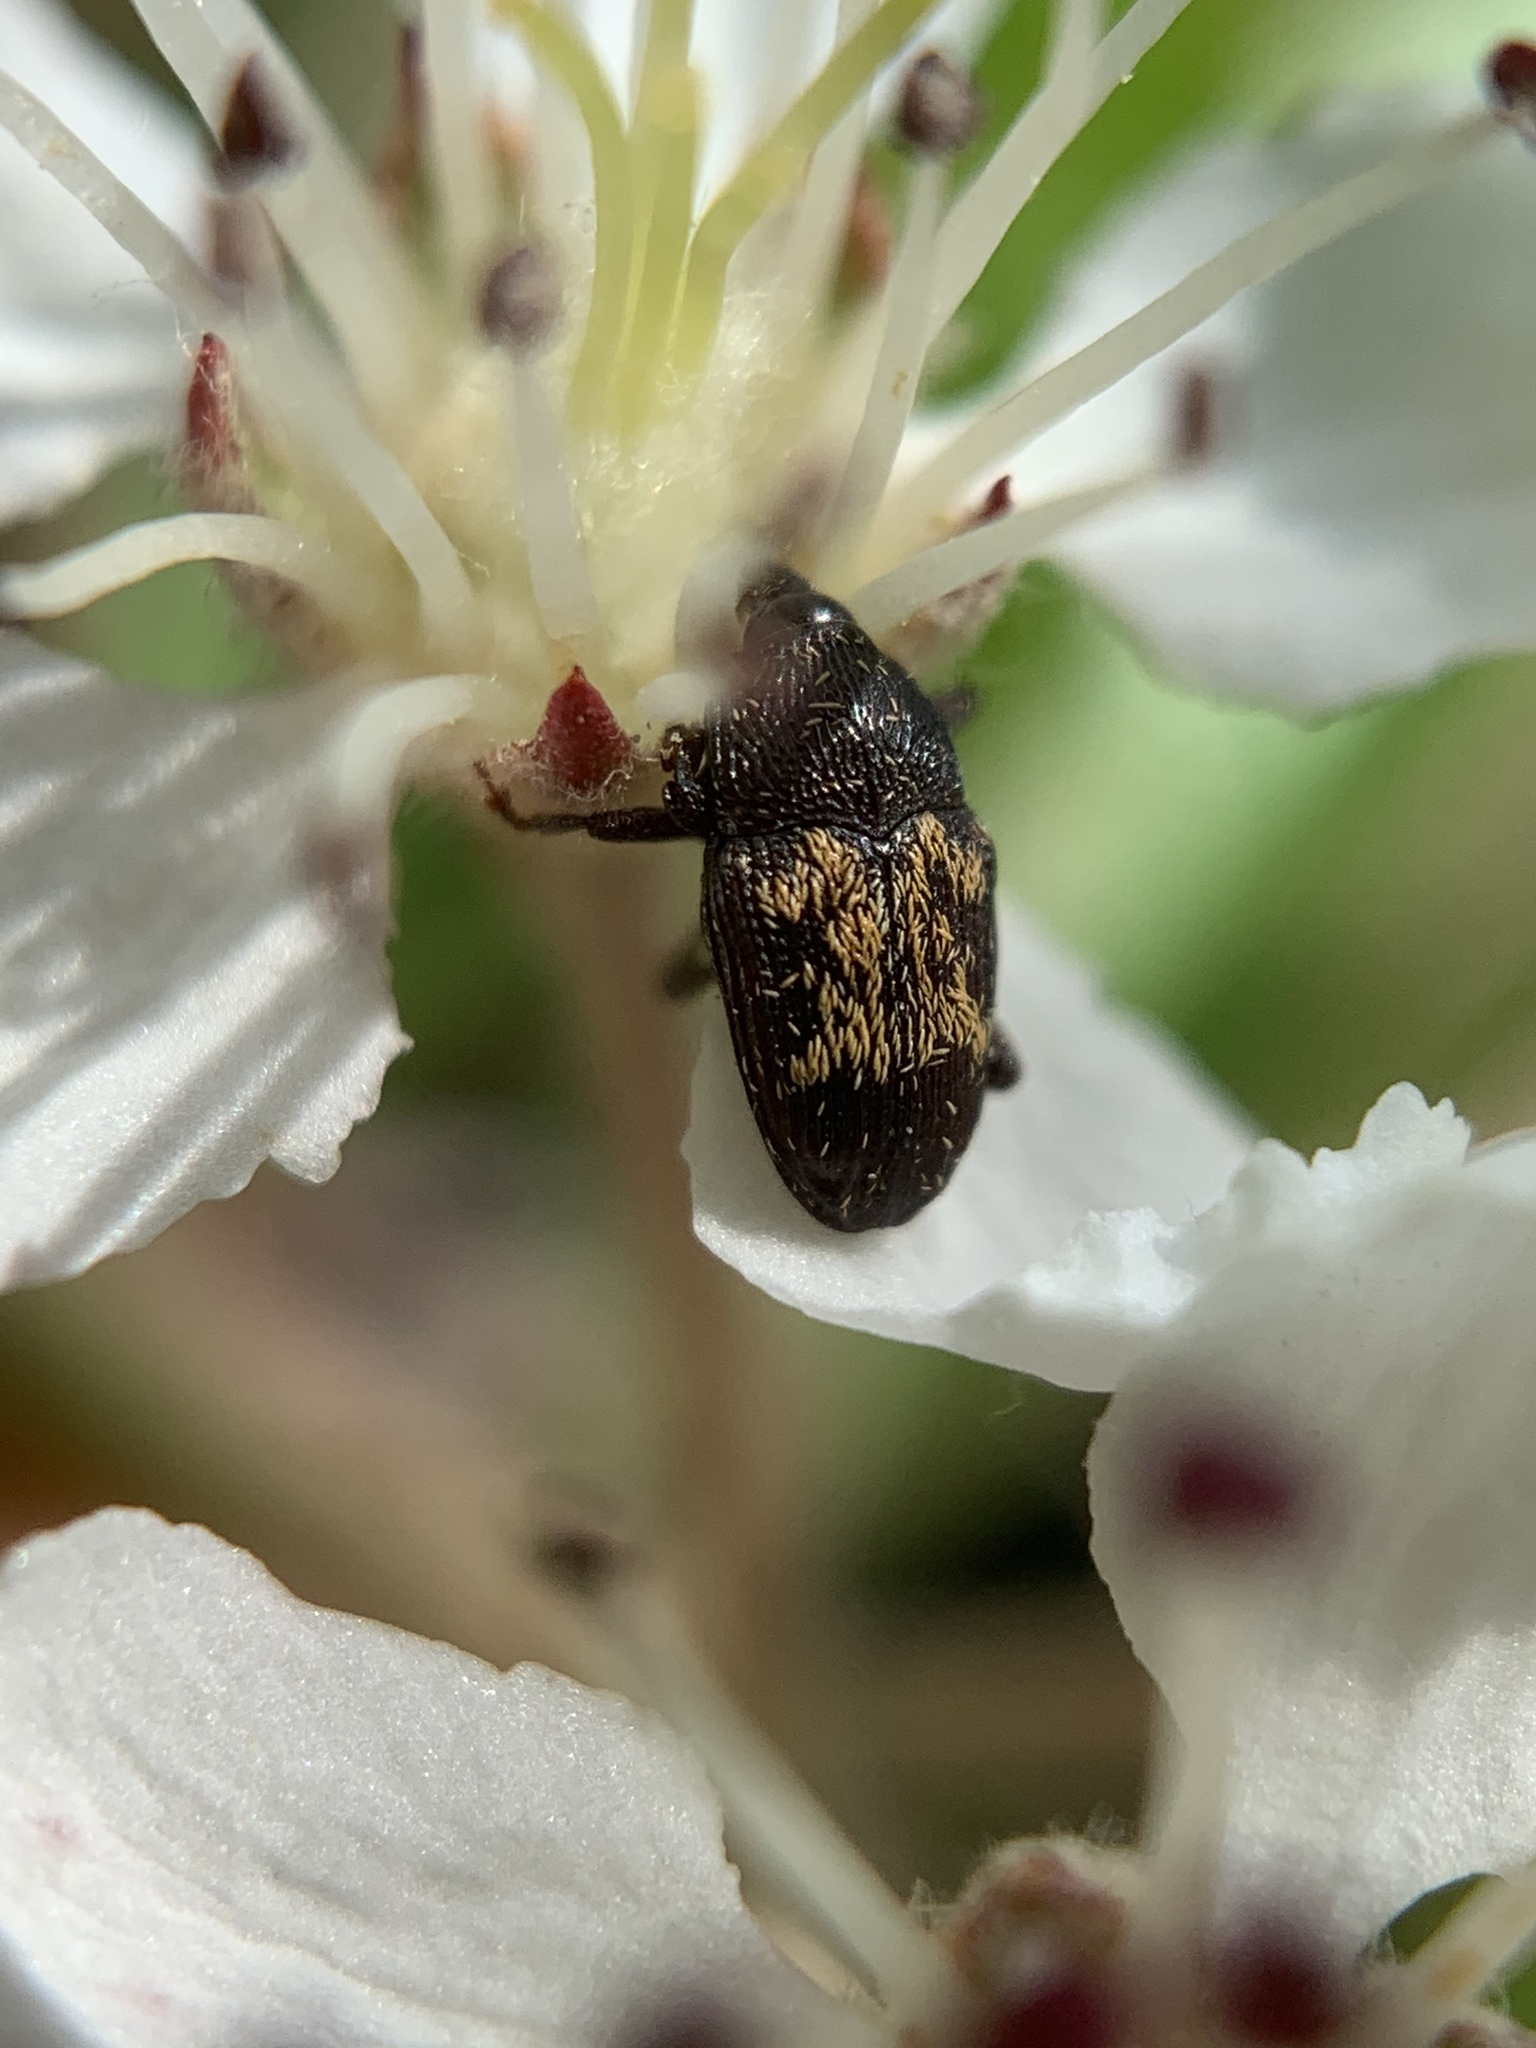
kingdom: Animalia
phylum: Arthropoda
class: Insecta
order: Coleoptera
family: Curculionidae
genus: Glyptobaris
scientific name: Glyptobaris lecontei
